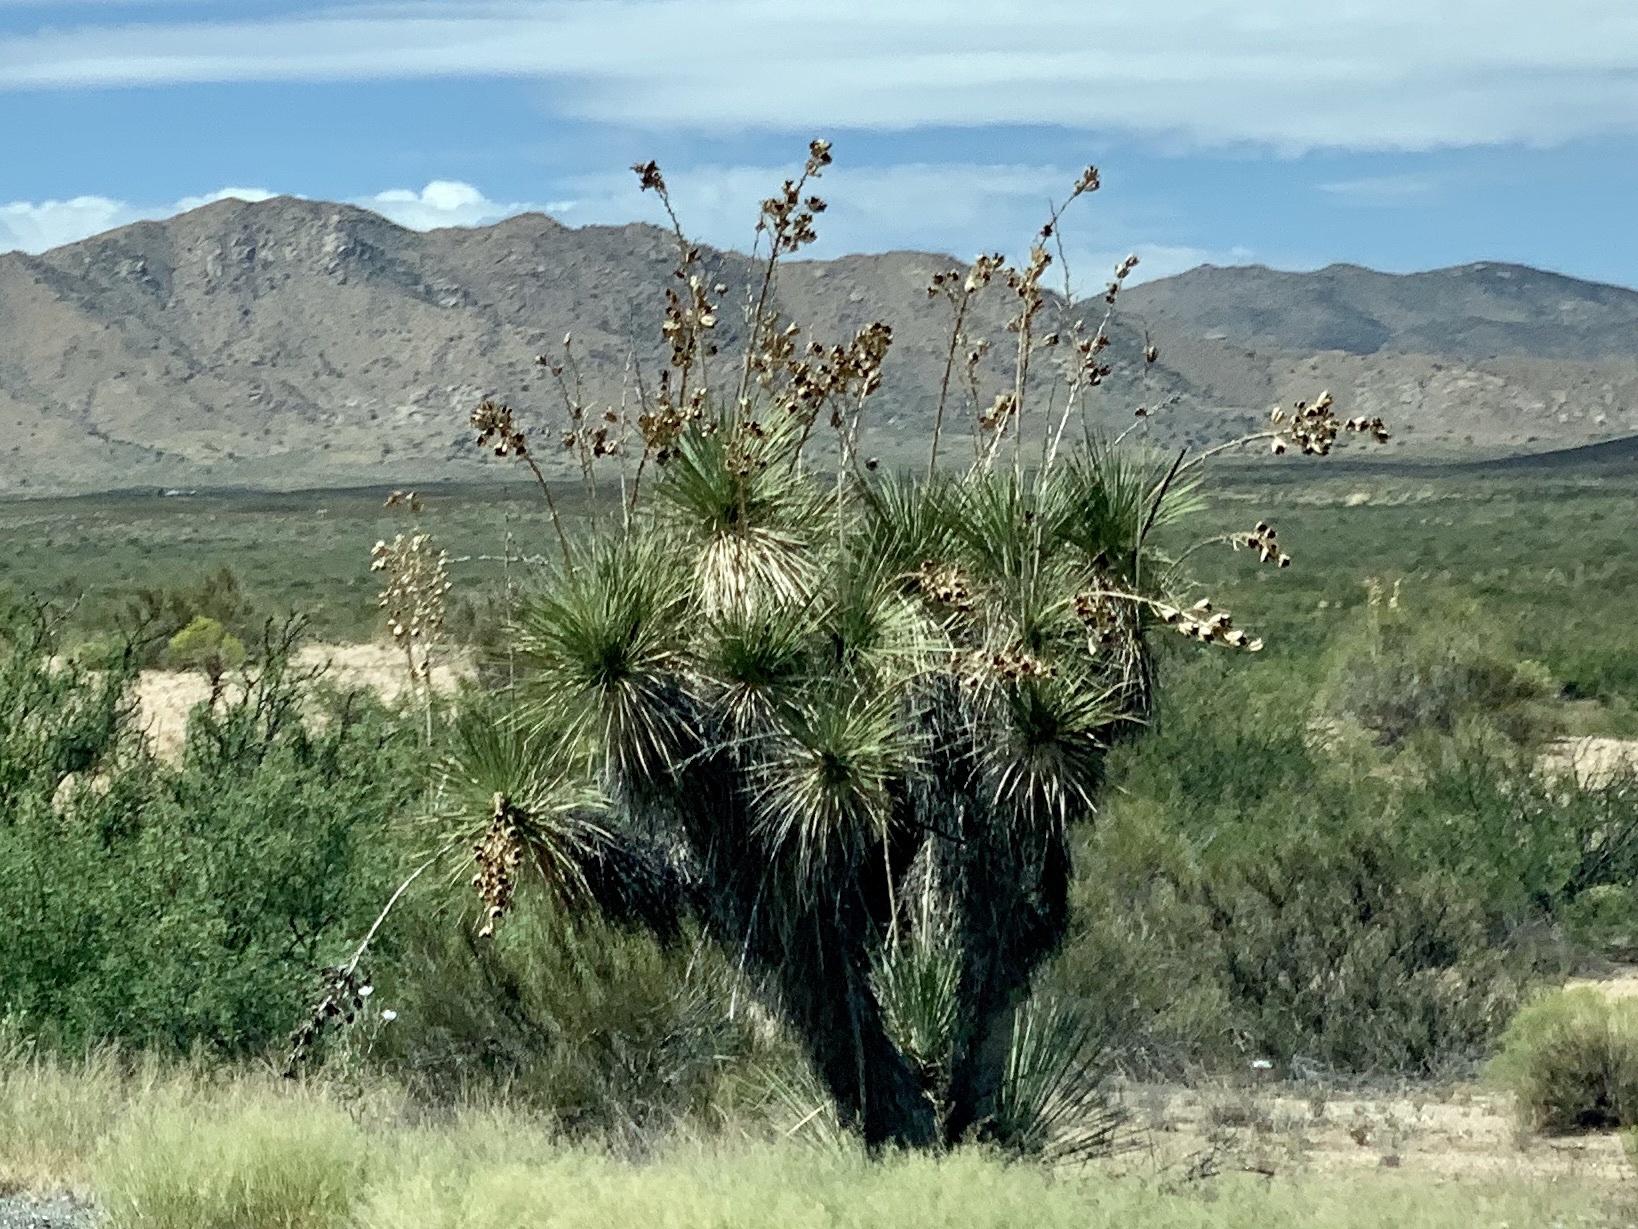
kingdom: Plantae
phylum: Tracheophyta
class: Liliopsida
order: Asparagales
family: Asparagaceae
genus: Yucca
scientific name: Yucca elata
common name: Palmella
